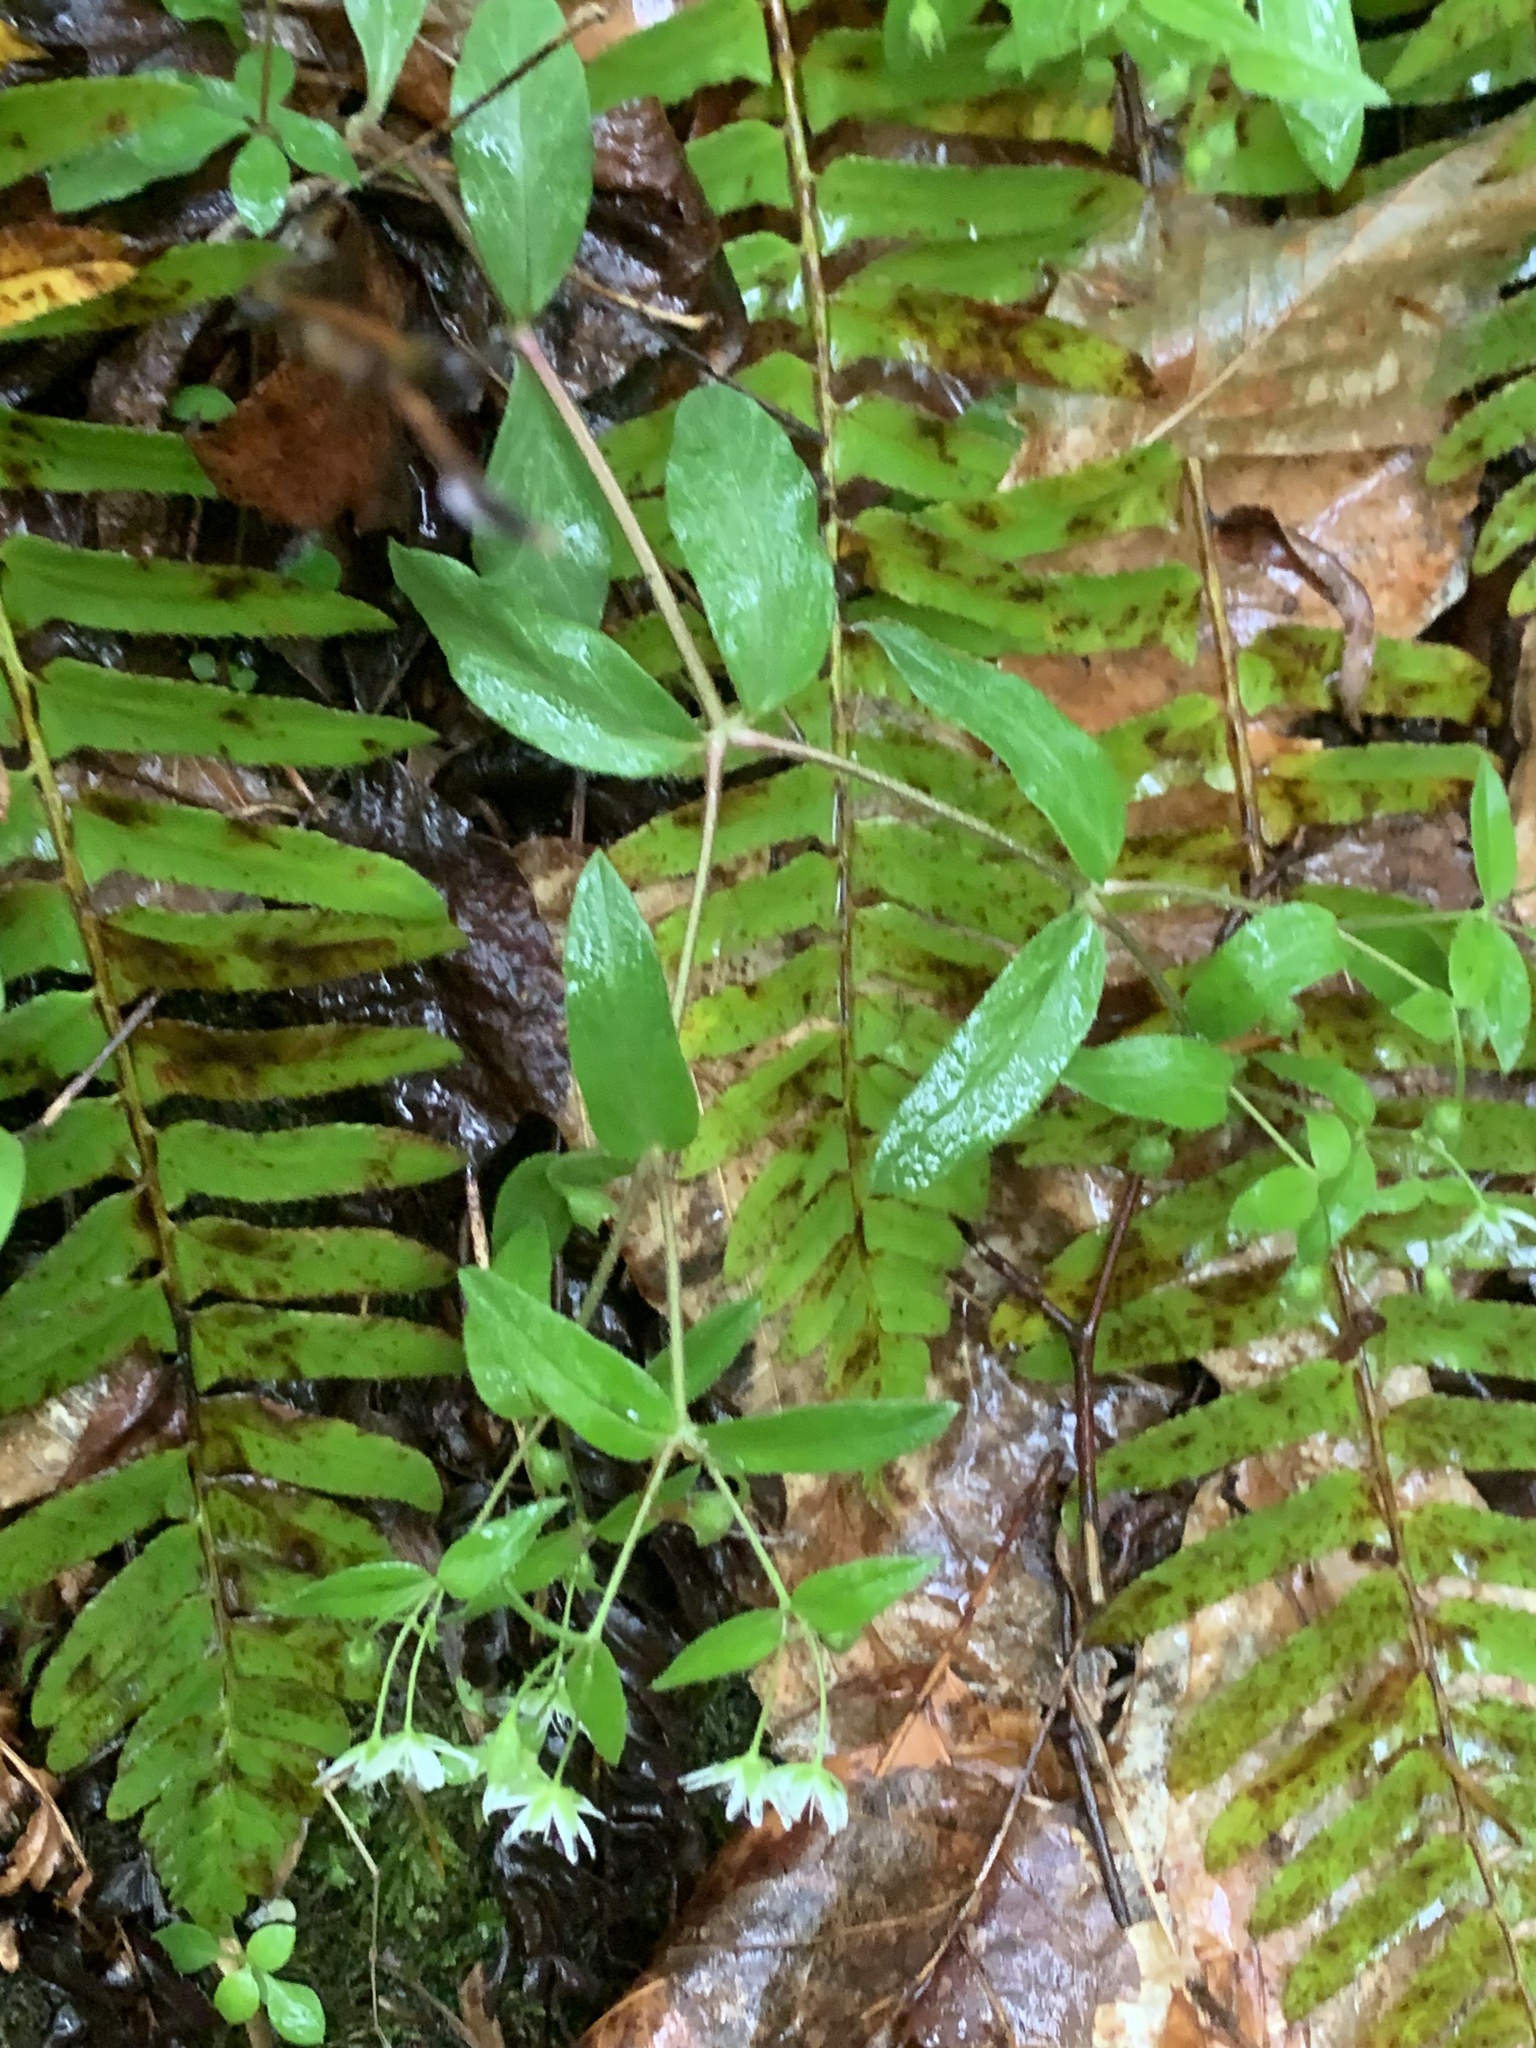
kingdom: Plantae
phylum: Tracheophyta
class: Magnoliopsida
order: Caryophyllales
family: Caryophyllaceae
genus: Stellaria
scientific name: Stellaria pubera
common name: Star chickweed
